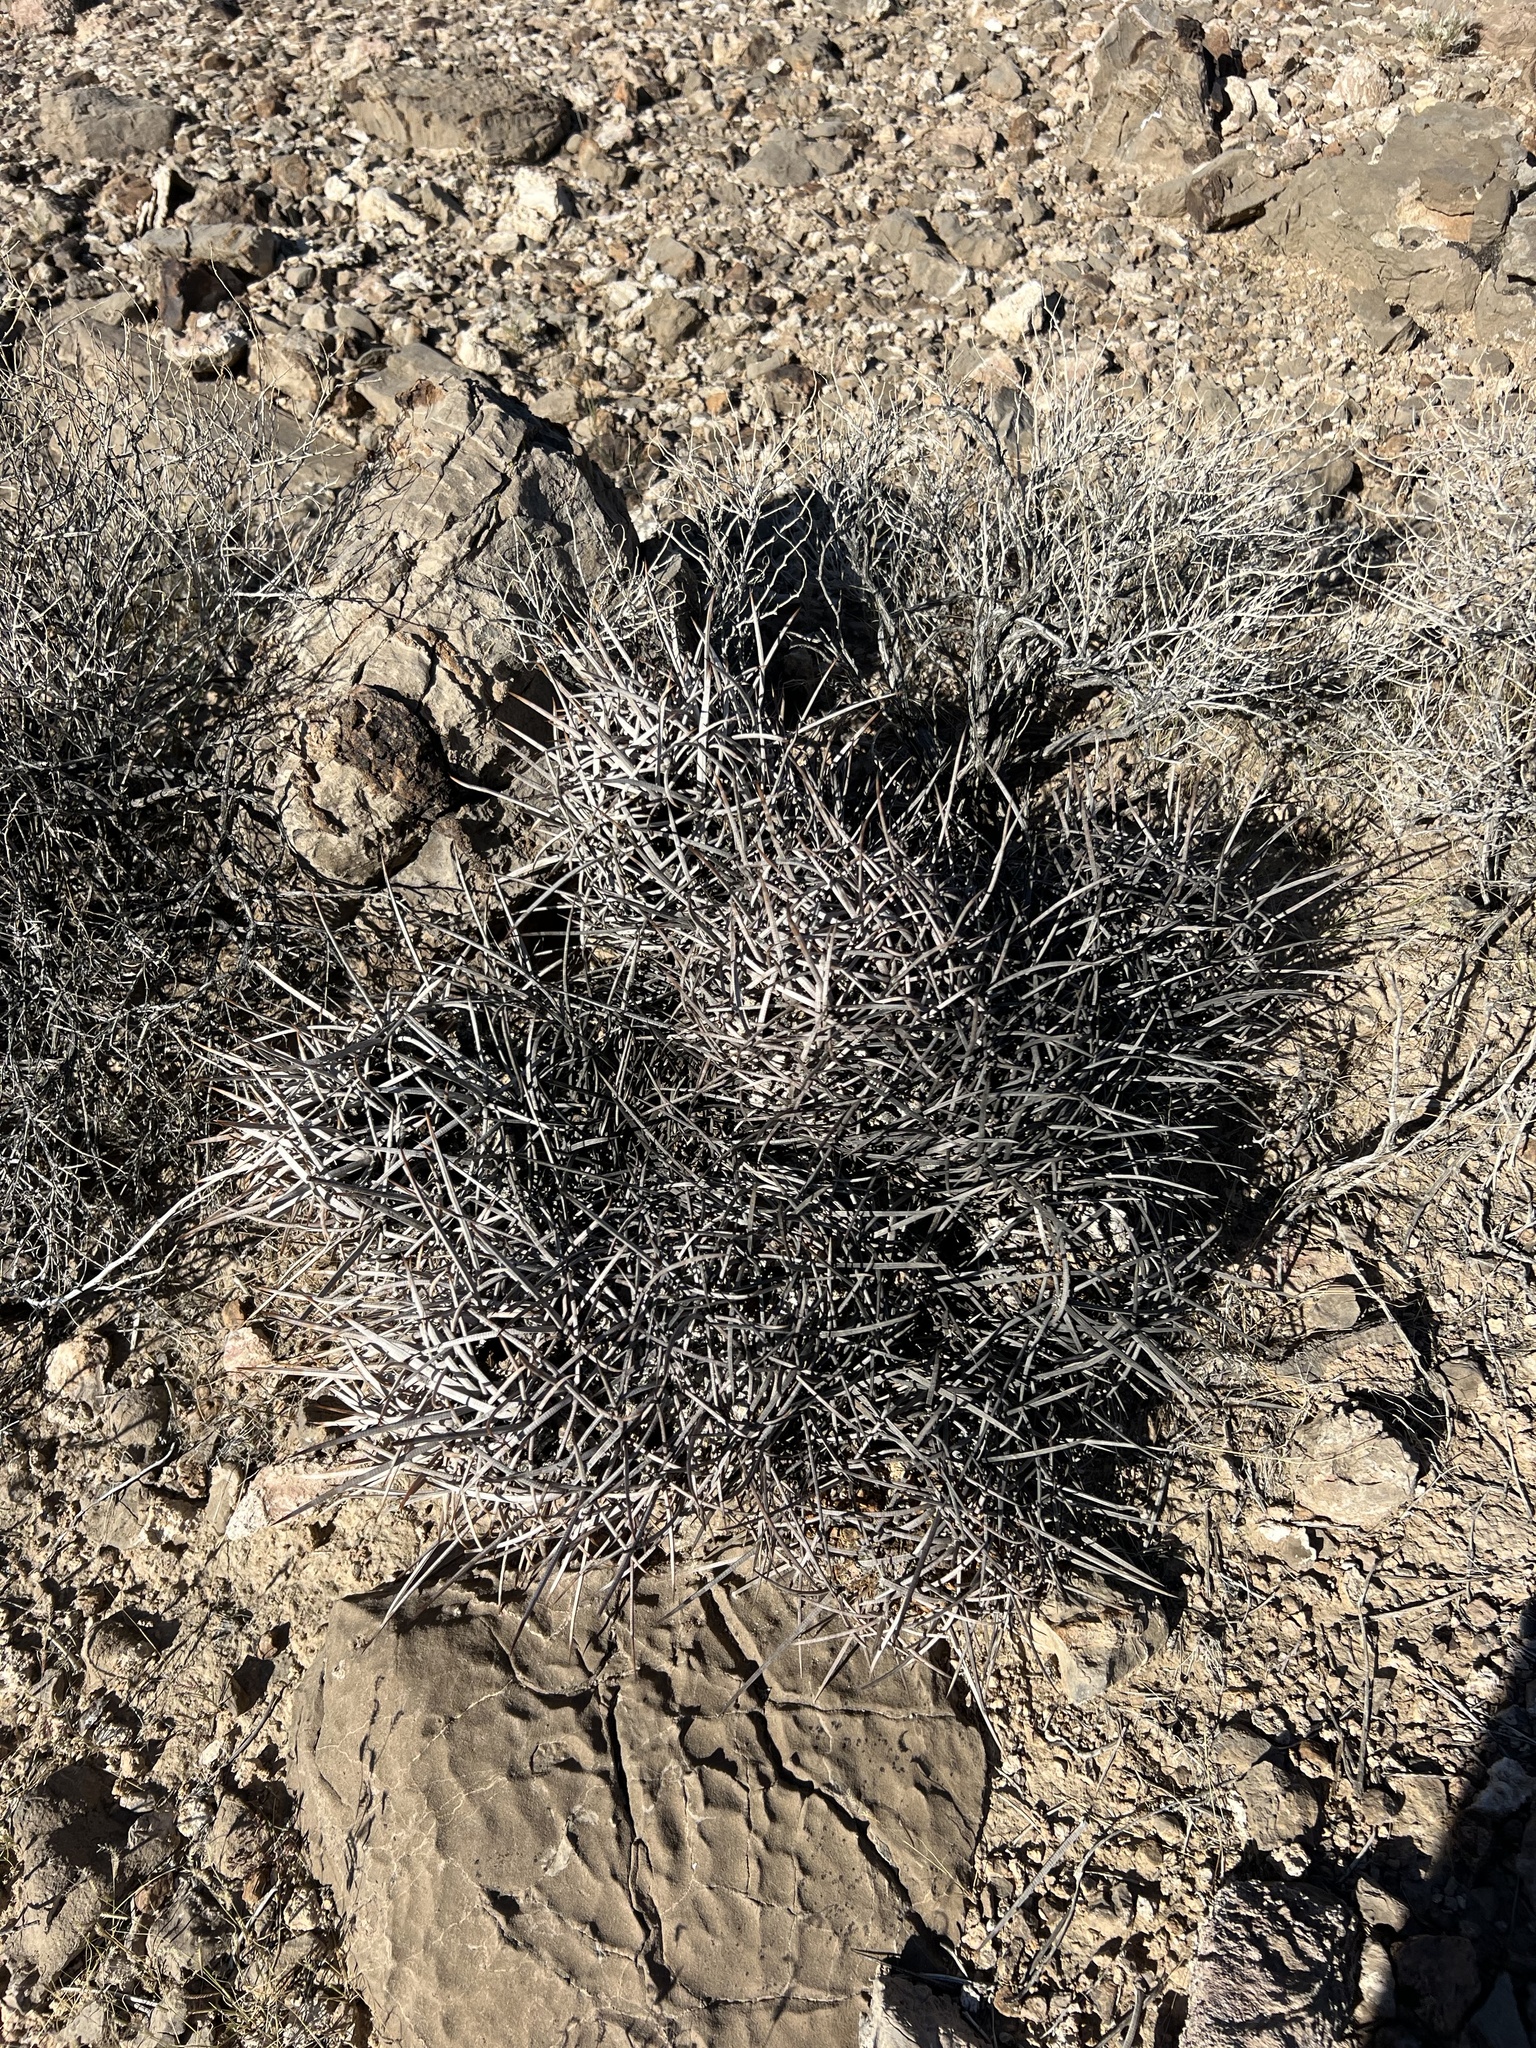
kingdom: Plantae
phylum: Tracheophyta
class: Magnoliopsida
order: Caryophyllales
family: Cactaceae
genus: Echinocactus
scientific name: Echinocactus polycephalus
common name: Cottontop cactus
